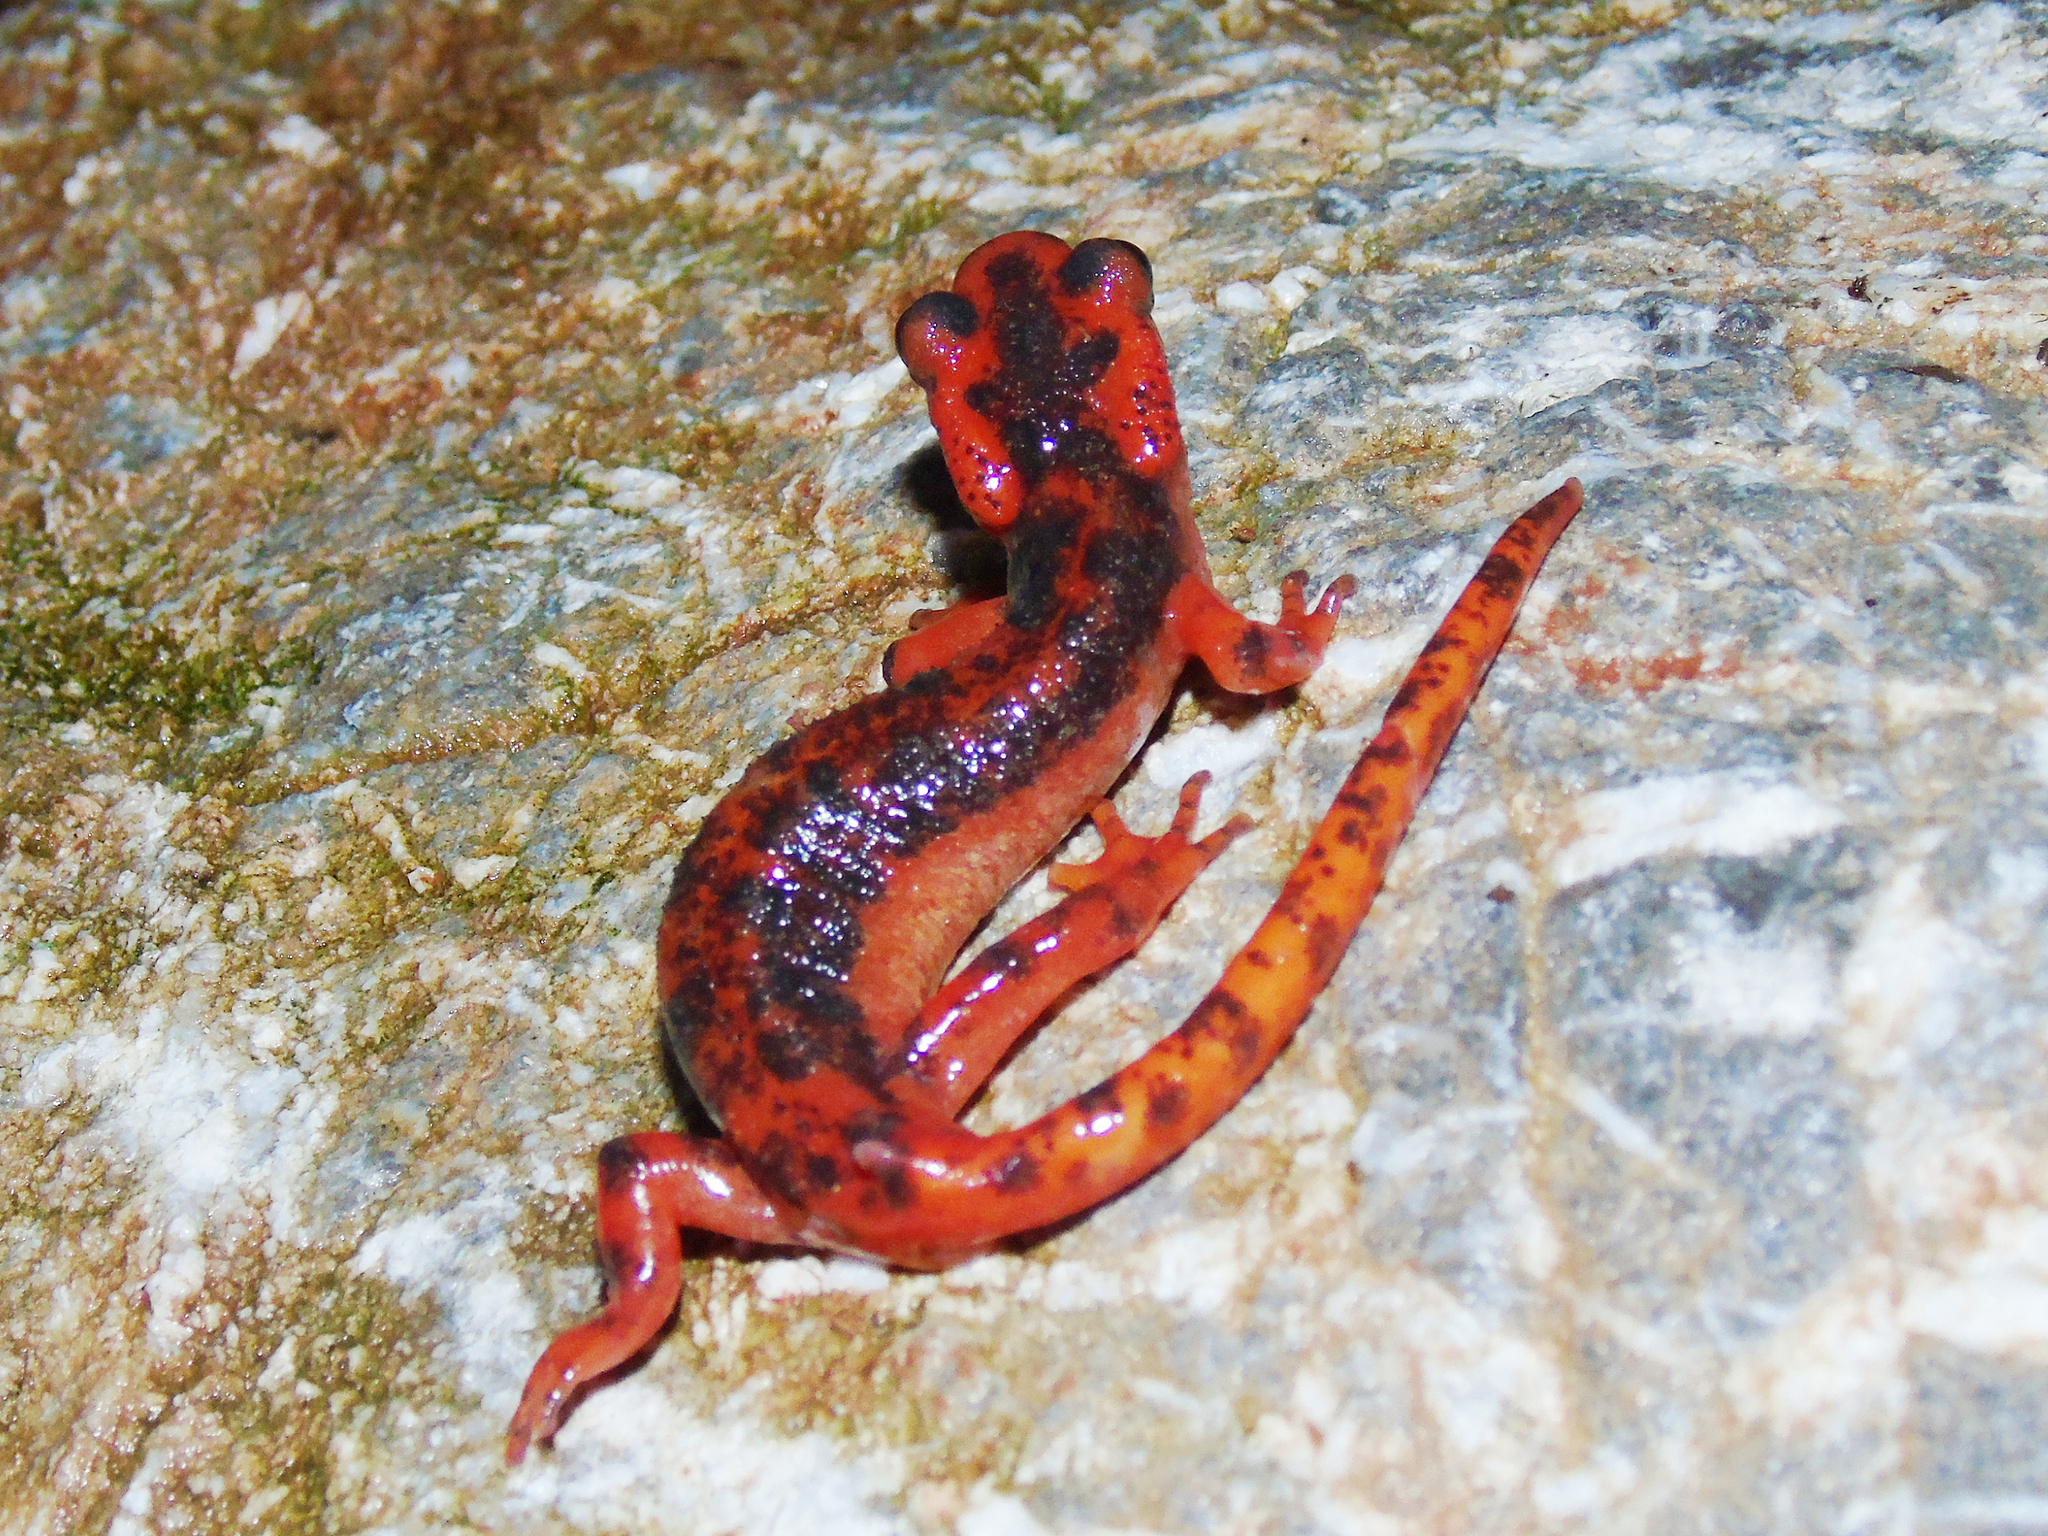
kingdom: Animalia
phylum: Chordata
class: Amphibia
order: Caudata
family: Salamandridae
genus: Lyciasalamandra
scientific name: Lyciasalamandra fazilae
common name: Fazila's salamander
